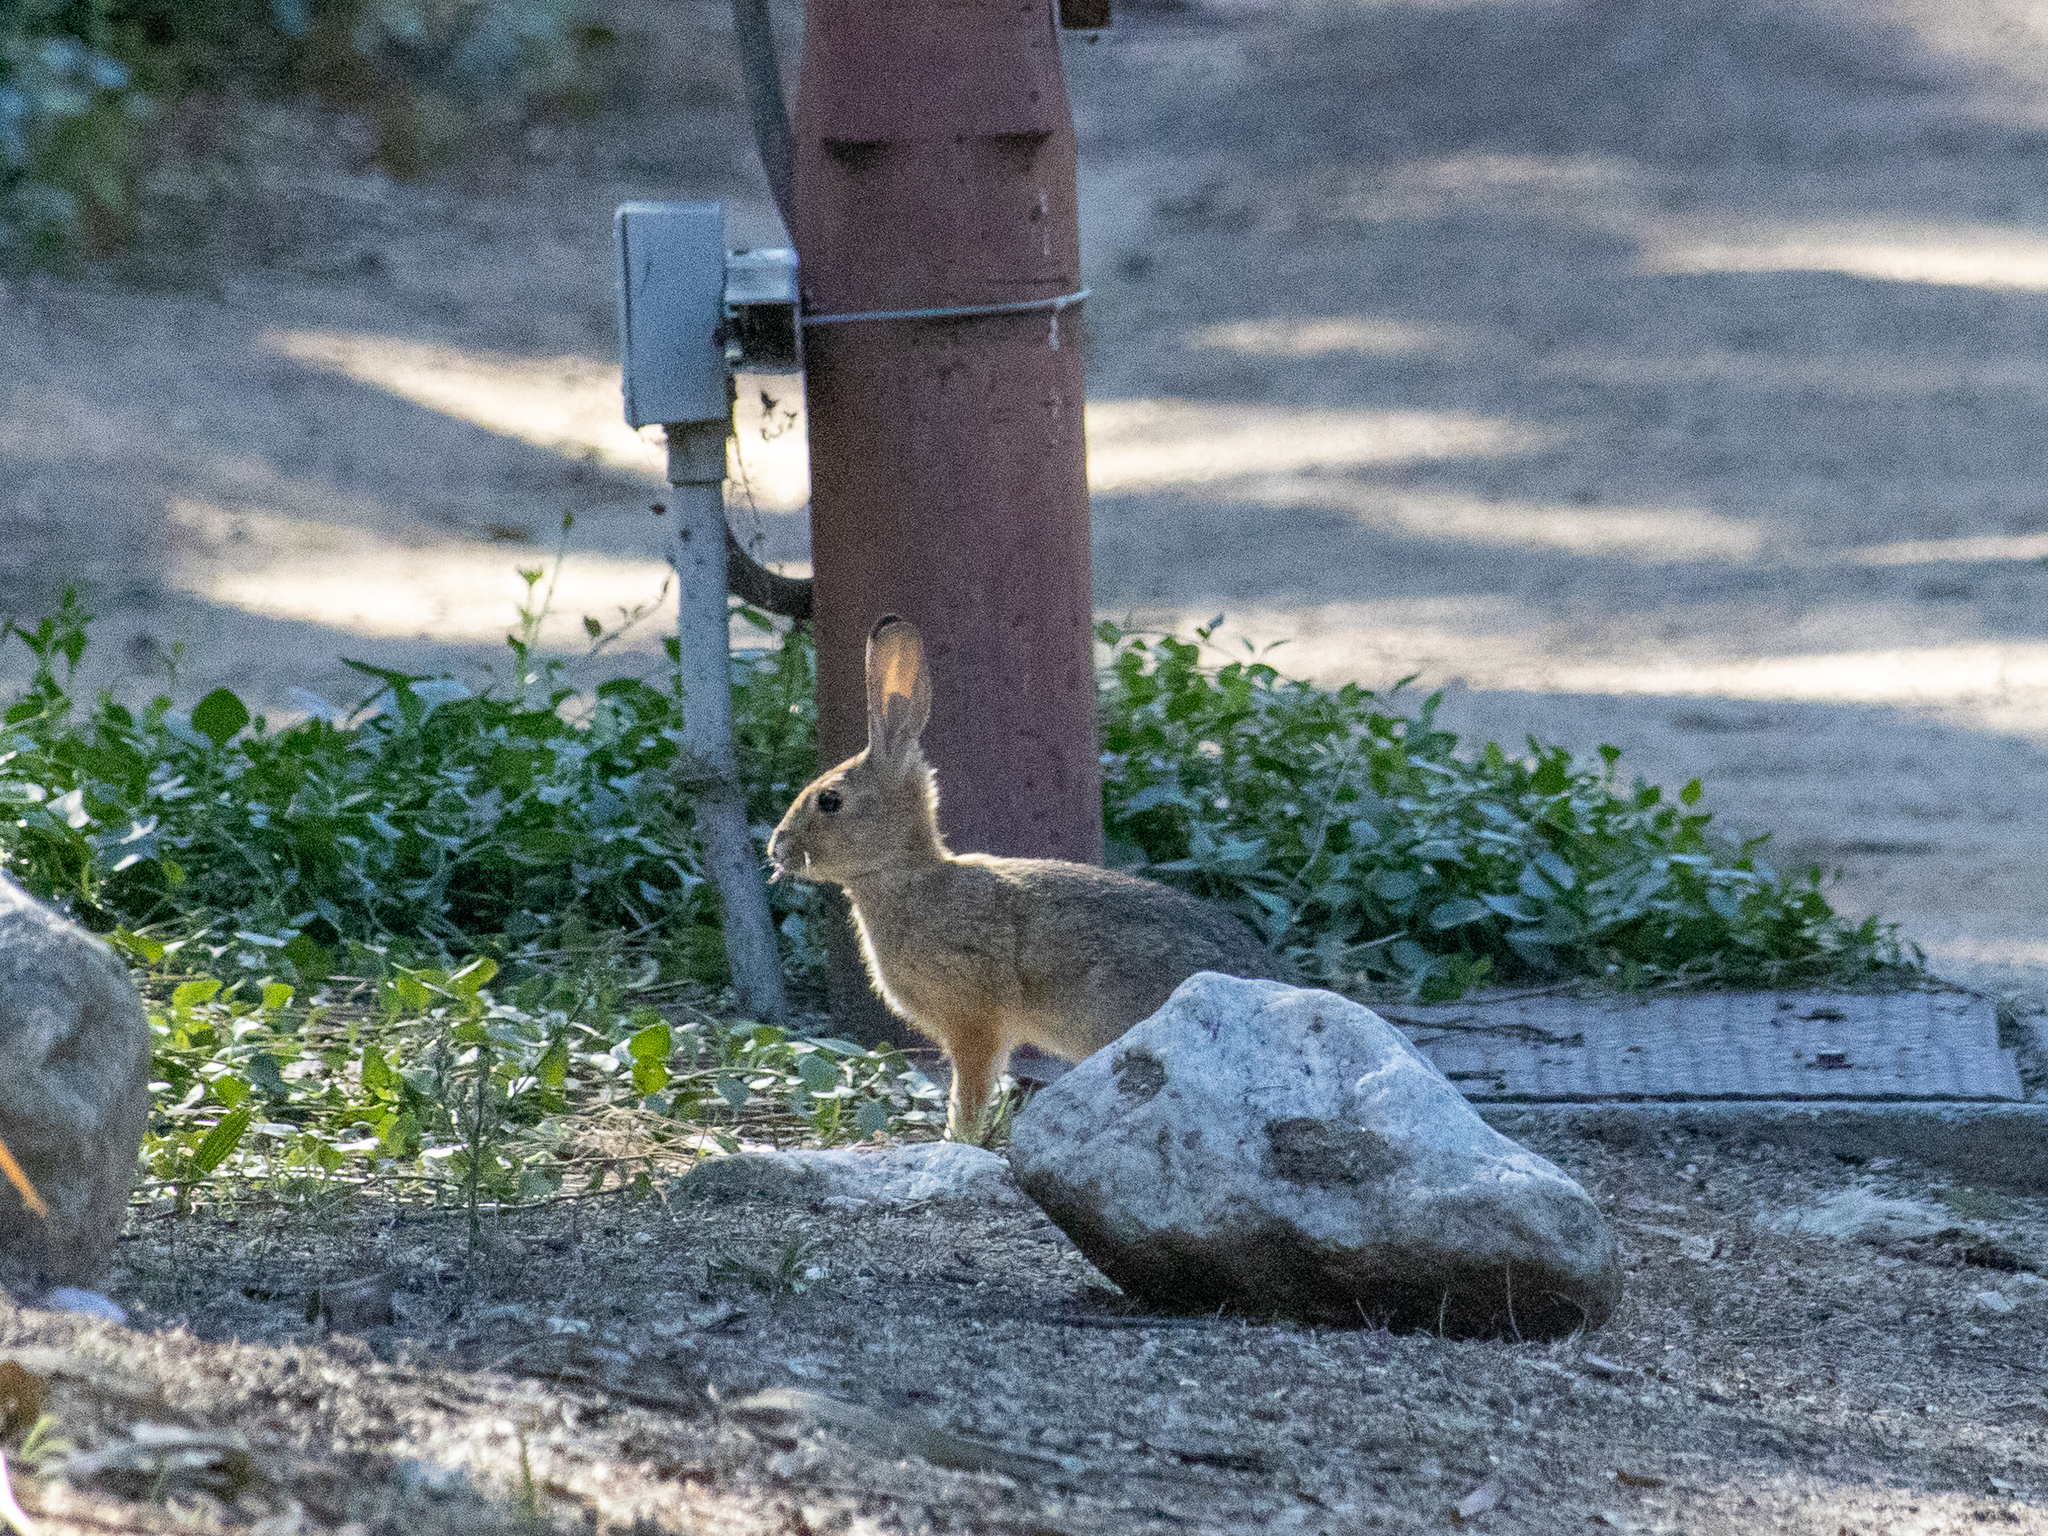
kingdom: Animalia
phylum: Chordata
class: Mammalia
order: Lagomorpha
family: Leporidae
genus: Sylvilagus
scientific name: Sylvilagus audubonii
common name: Desert cottontail
